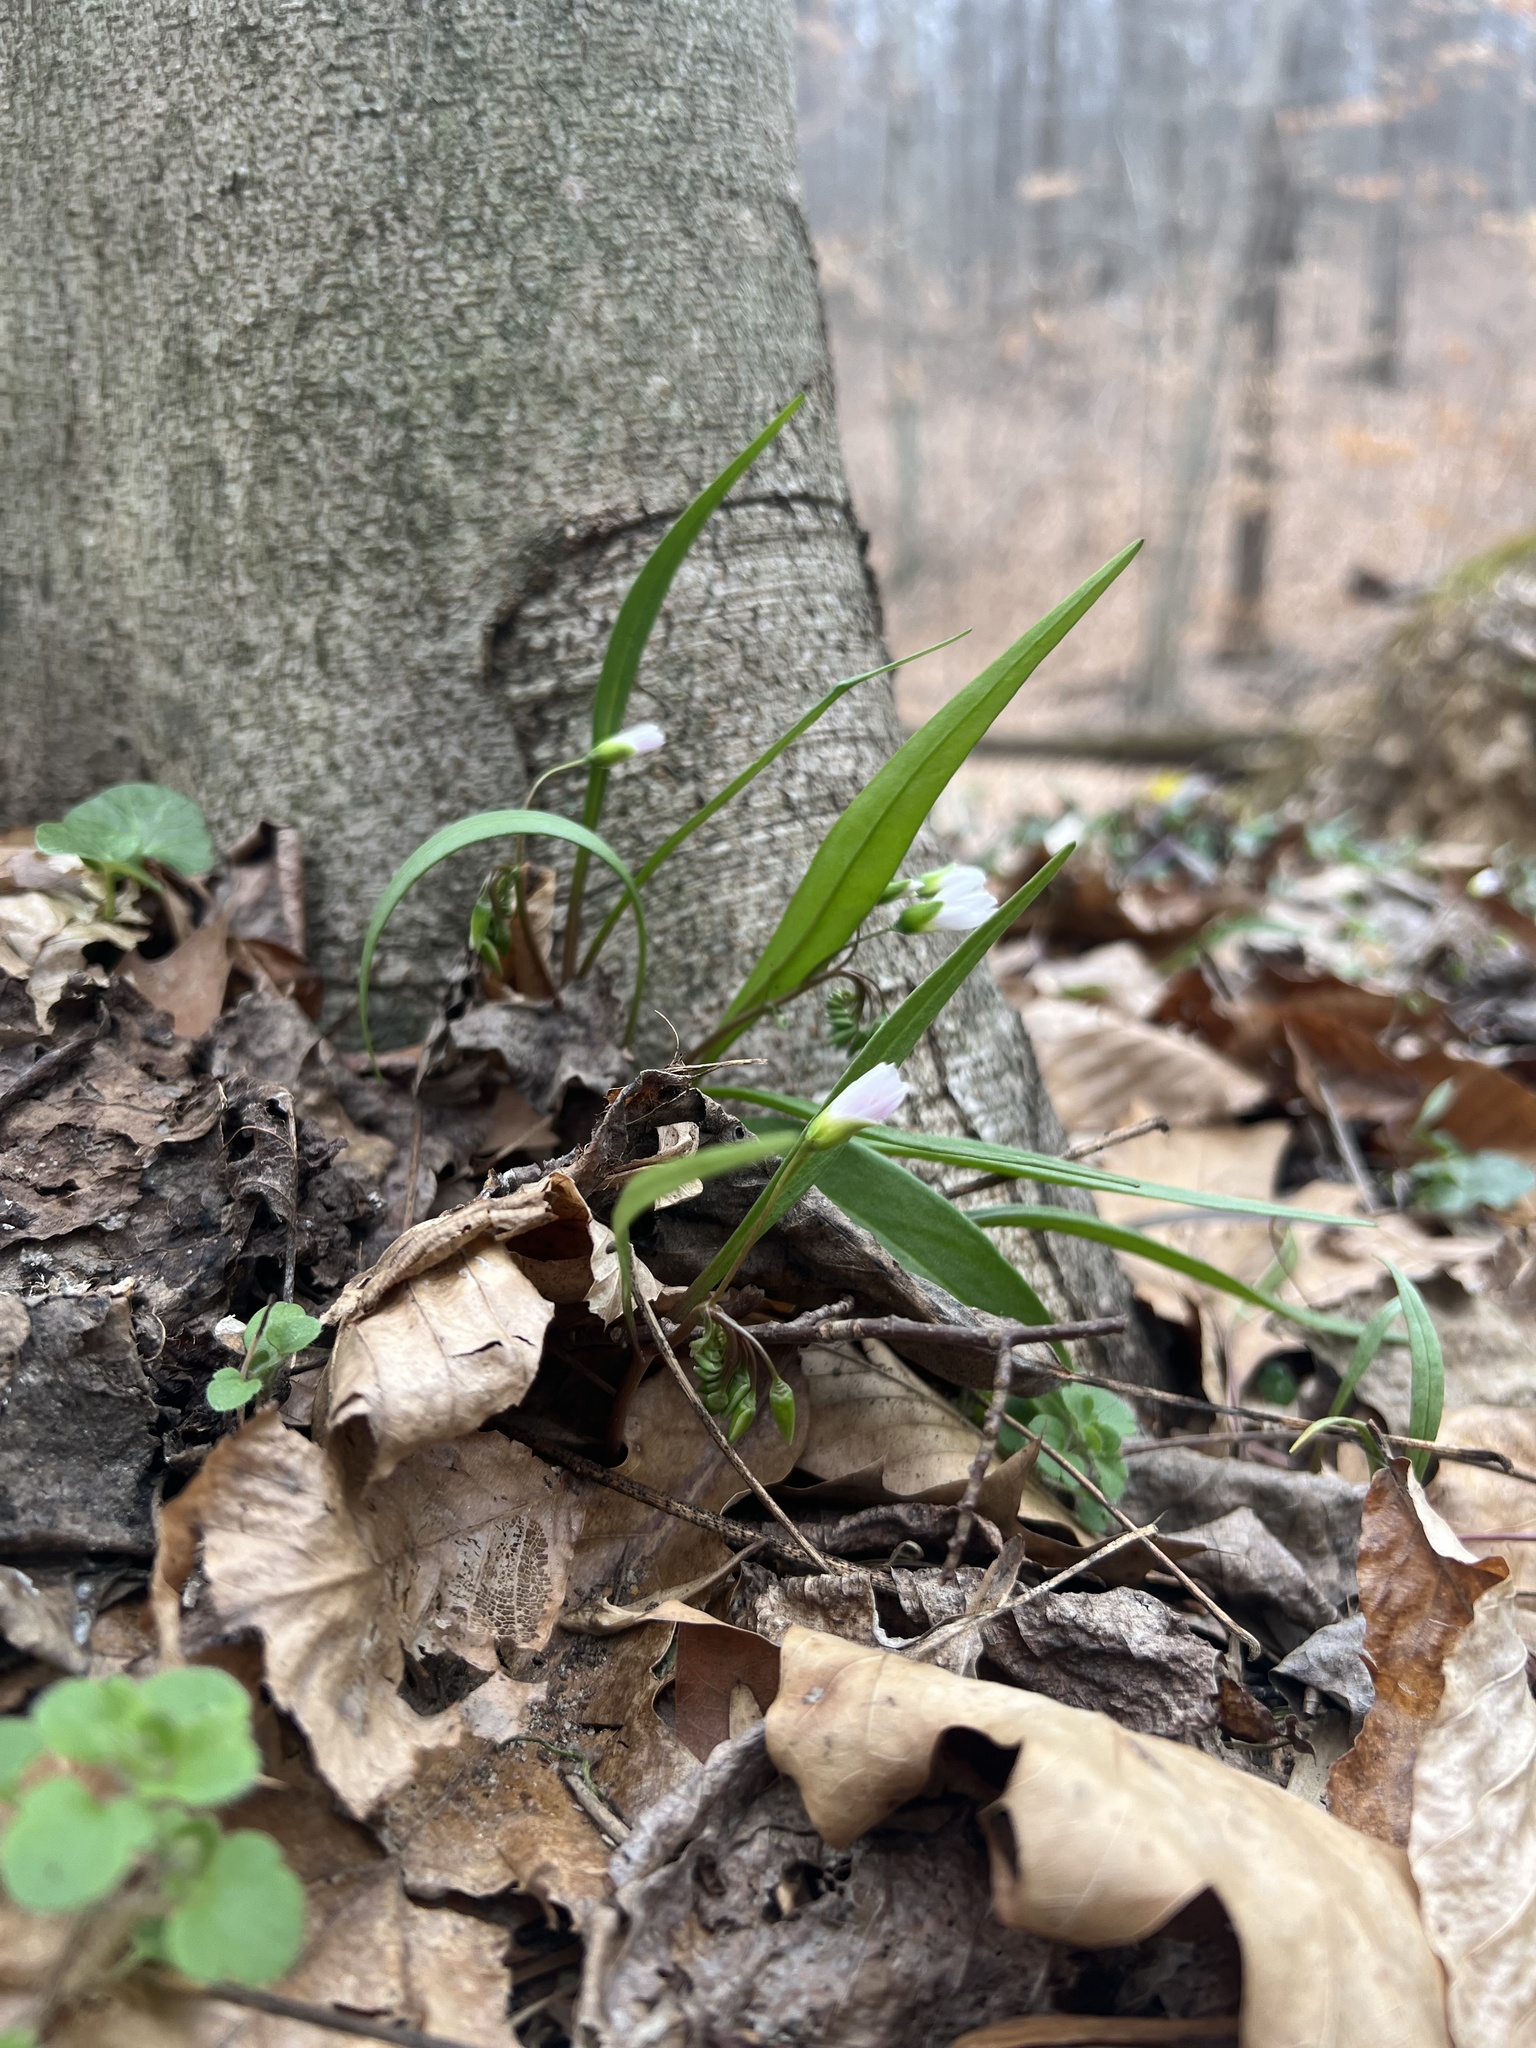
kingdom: Plantae
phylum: Tracheophyta
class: Magnoliopsida
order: Caryophyllales
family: Montiaceae
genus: Claytonia
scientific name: Claytonia virginica
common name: Virginia springbeauty
